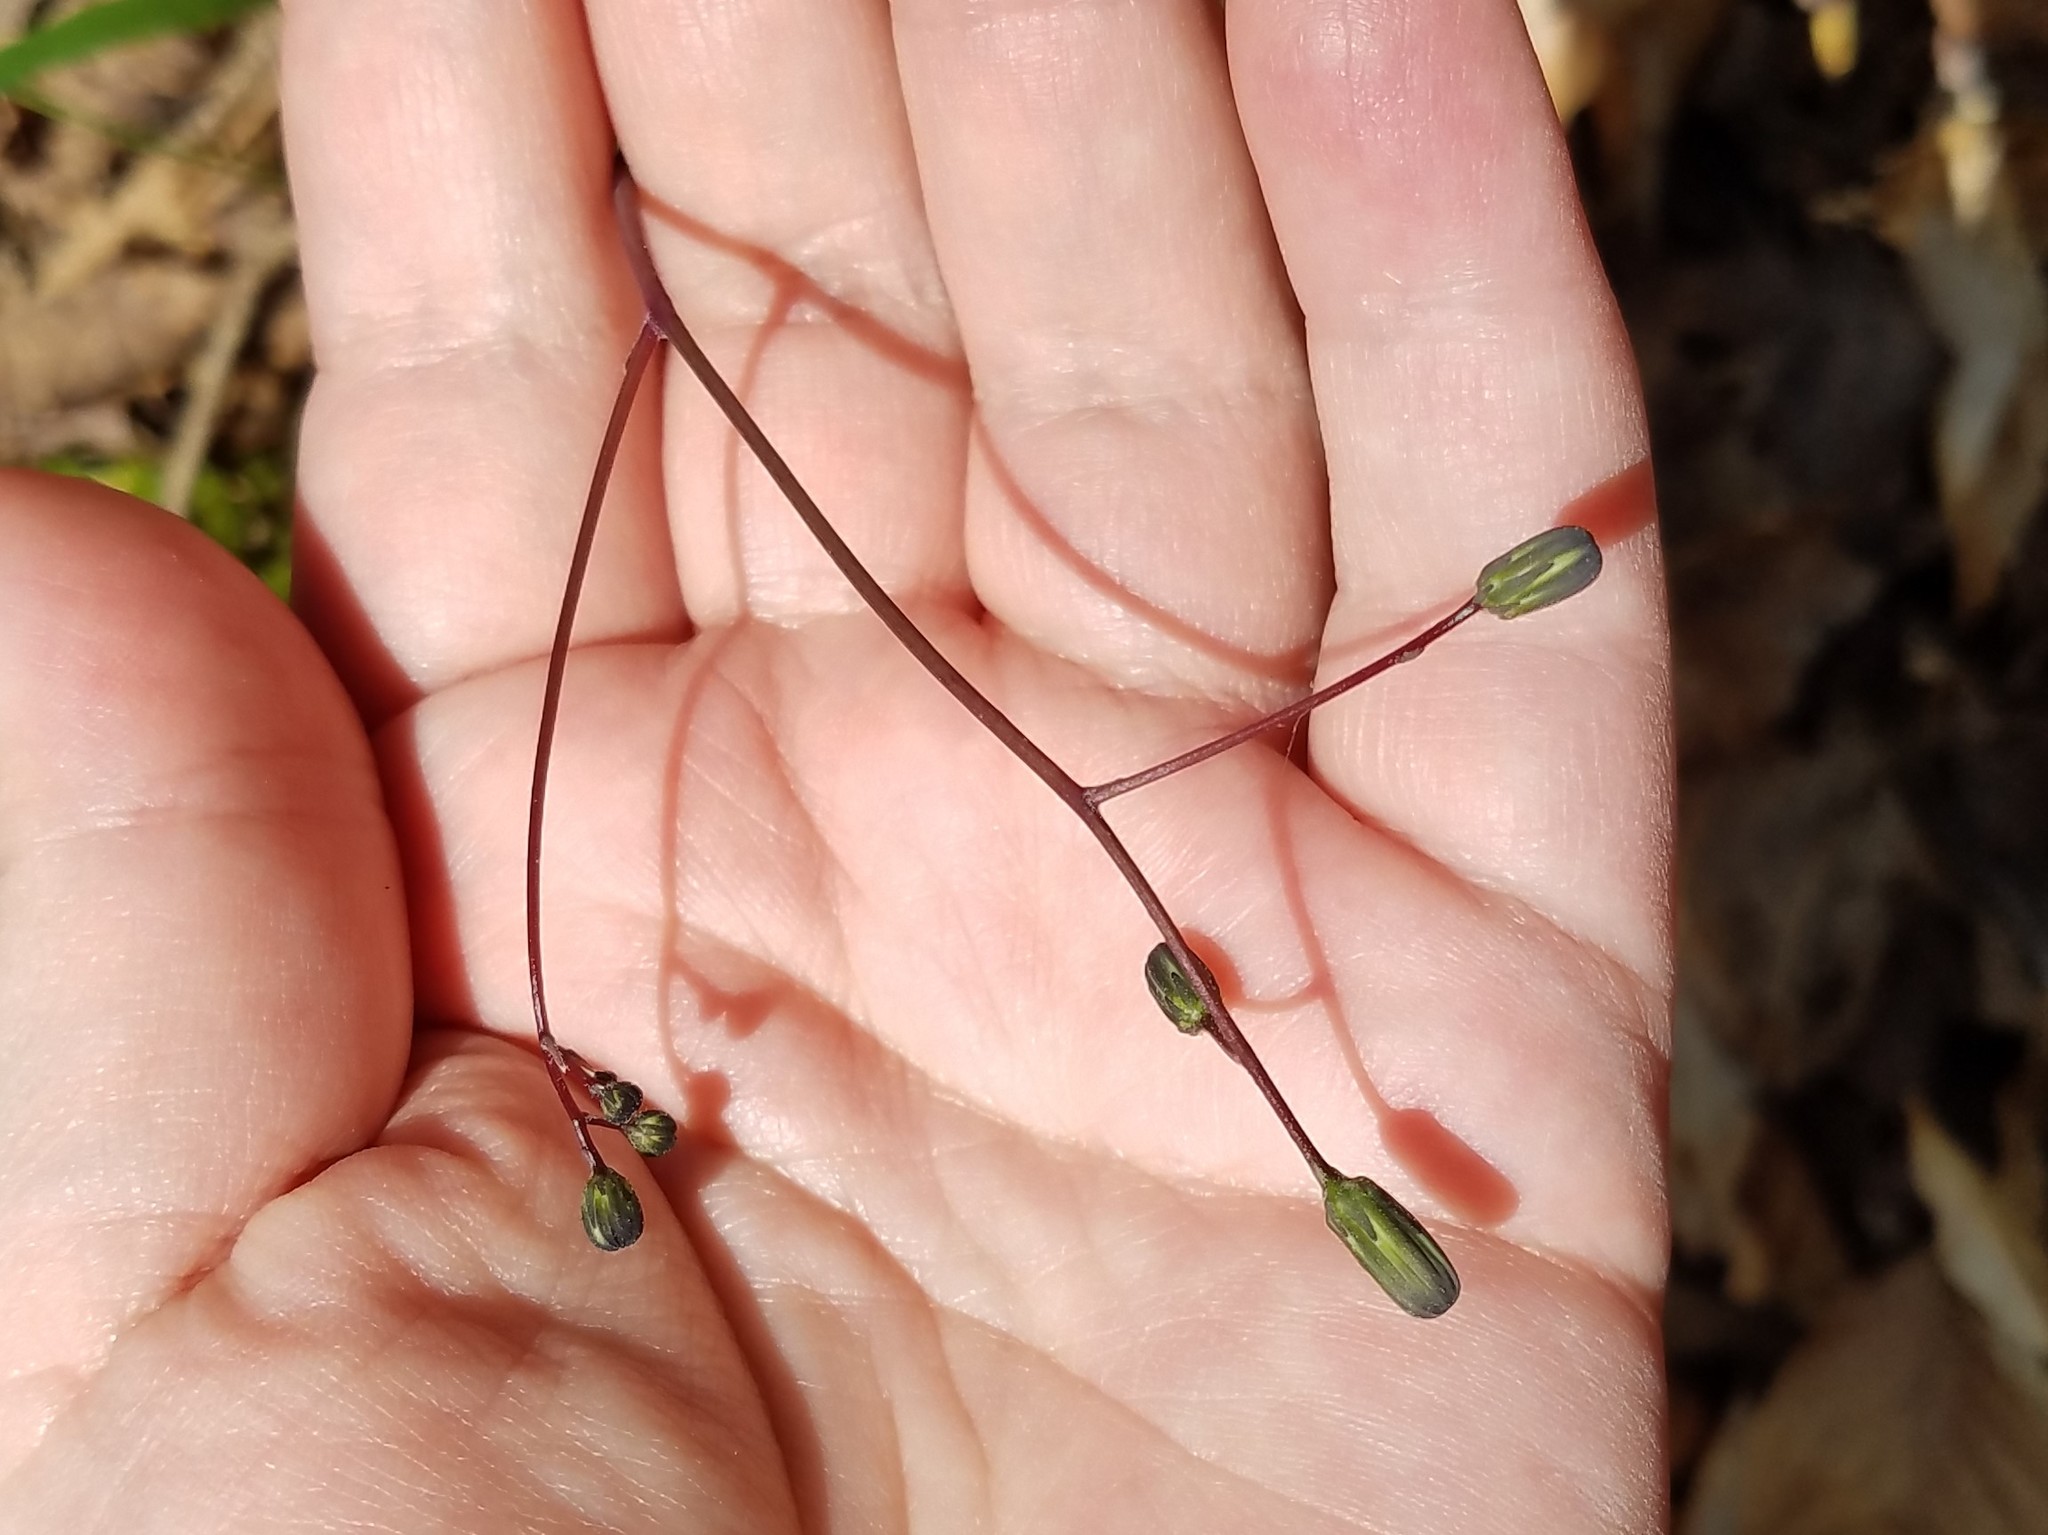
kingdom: Plantae
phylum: Tracheophyta
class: Magnoliopsida
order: Asterales
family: Asteraceae
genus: Hieracium
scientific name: Hieracium venosum
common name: Rattlesnake hawkweed
